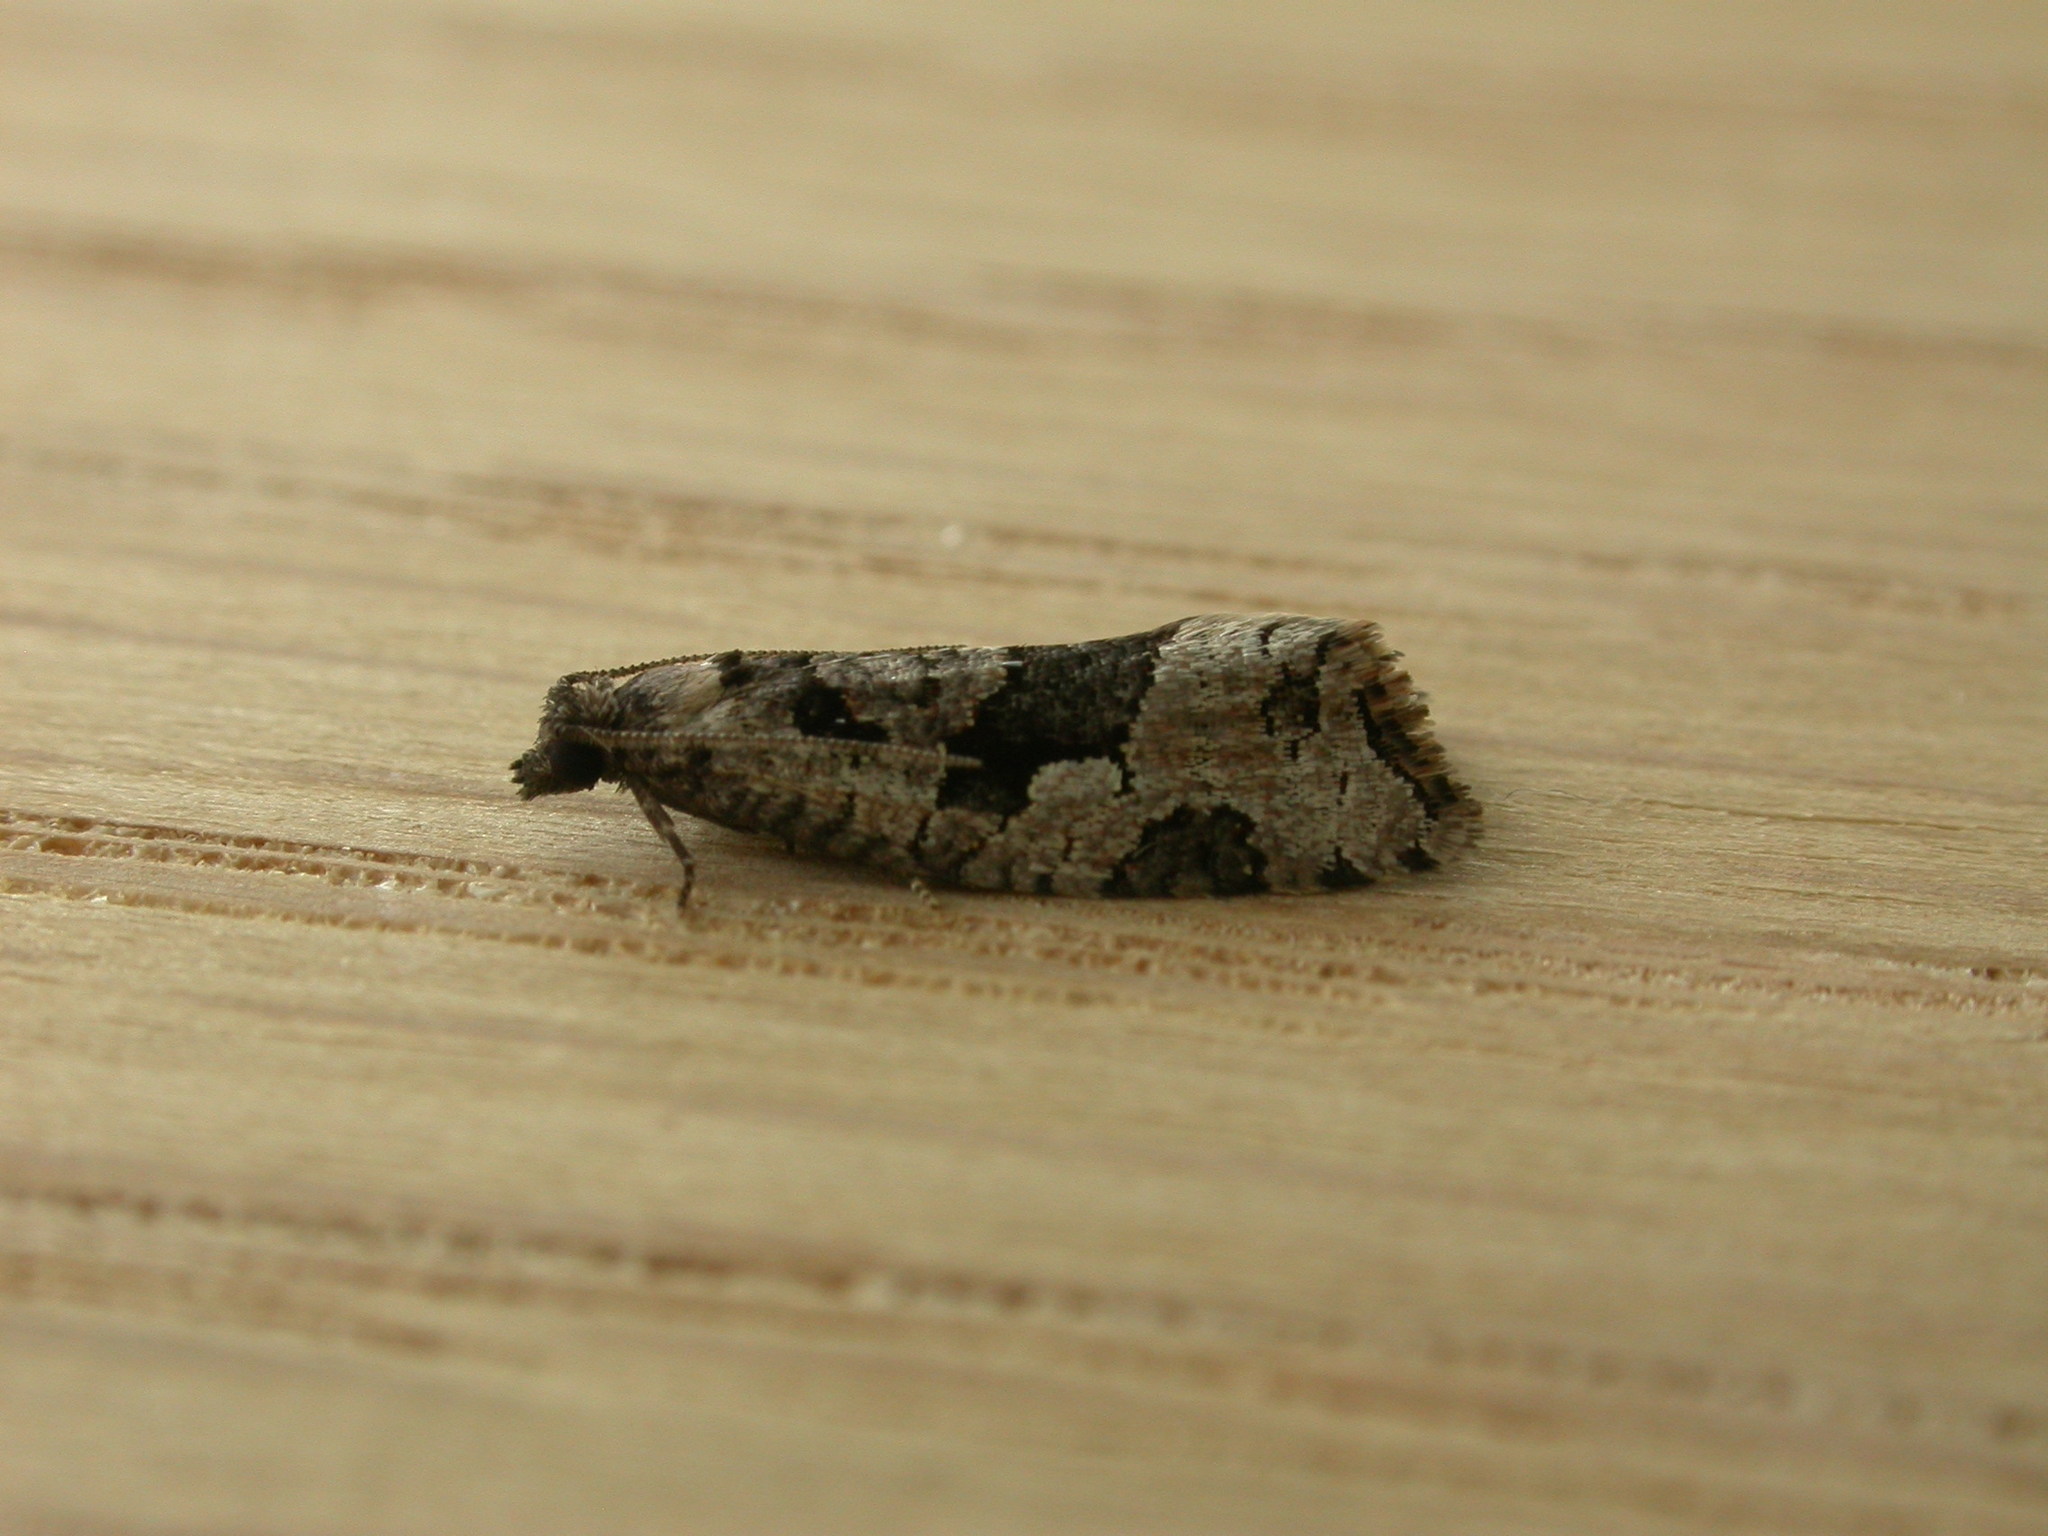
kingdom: Animalia
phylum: Arthropoda
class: Insecta
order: Lepidoptera
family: Tortricidae
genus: Sciaphila
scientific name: Sciaphila debiliana
